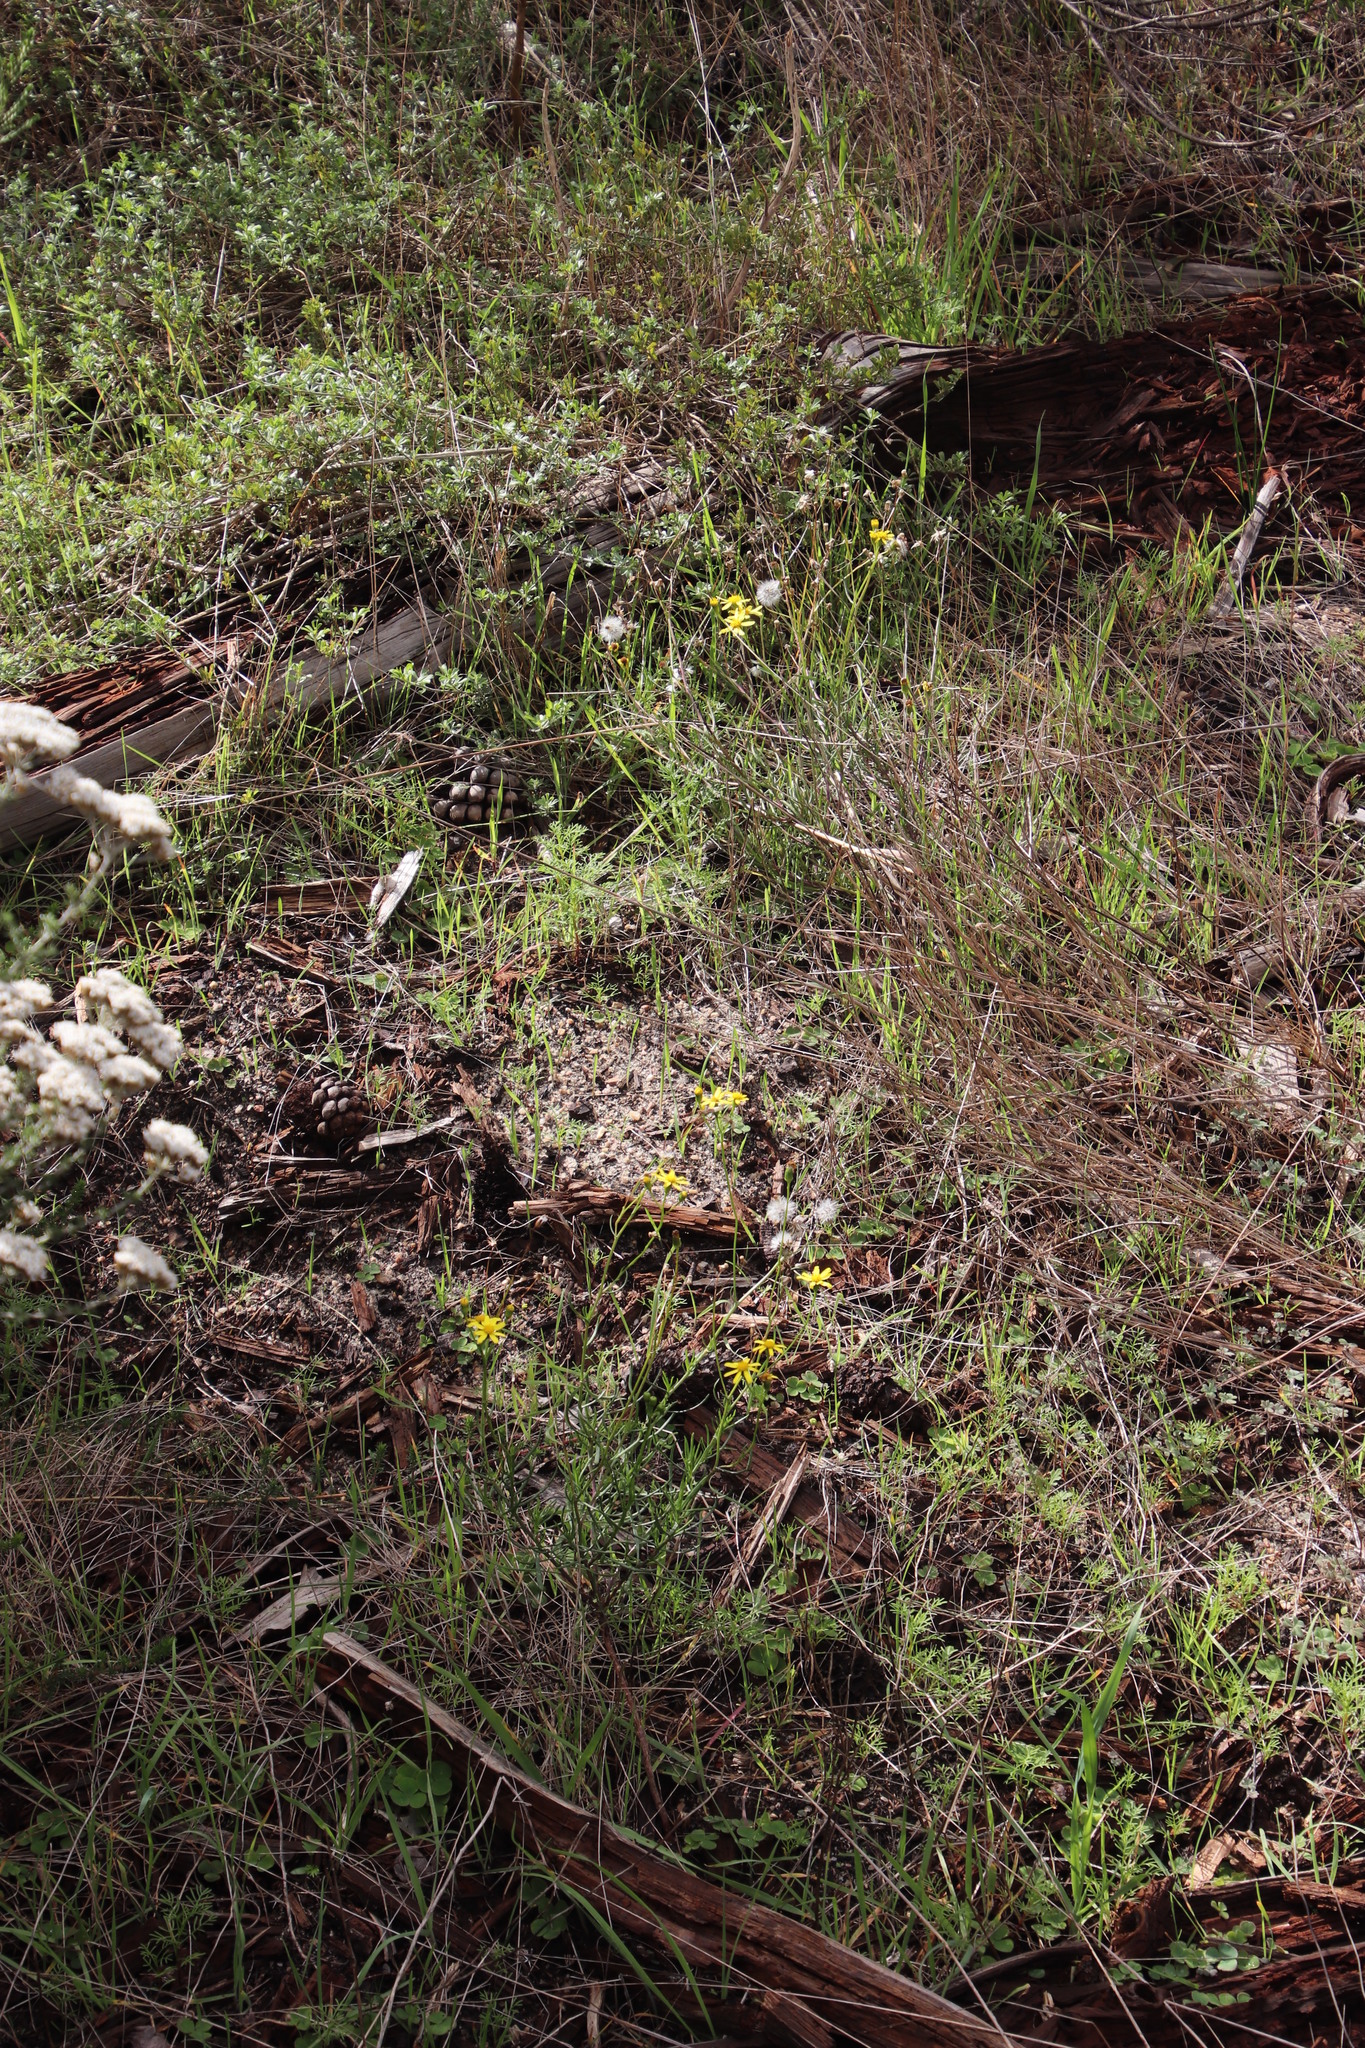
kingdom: Plantae
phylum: Tracheophyta
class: Magnoliopsida
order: Asterales
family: Asteraceae
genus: Senecio
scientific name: Senecio burchellii
